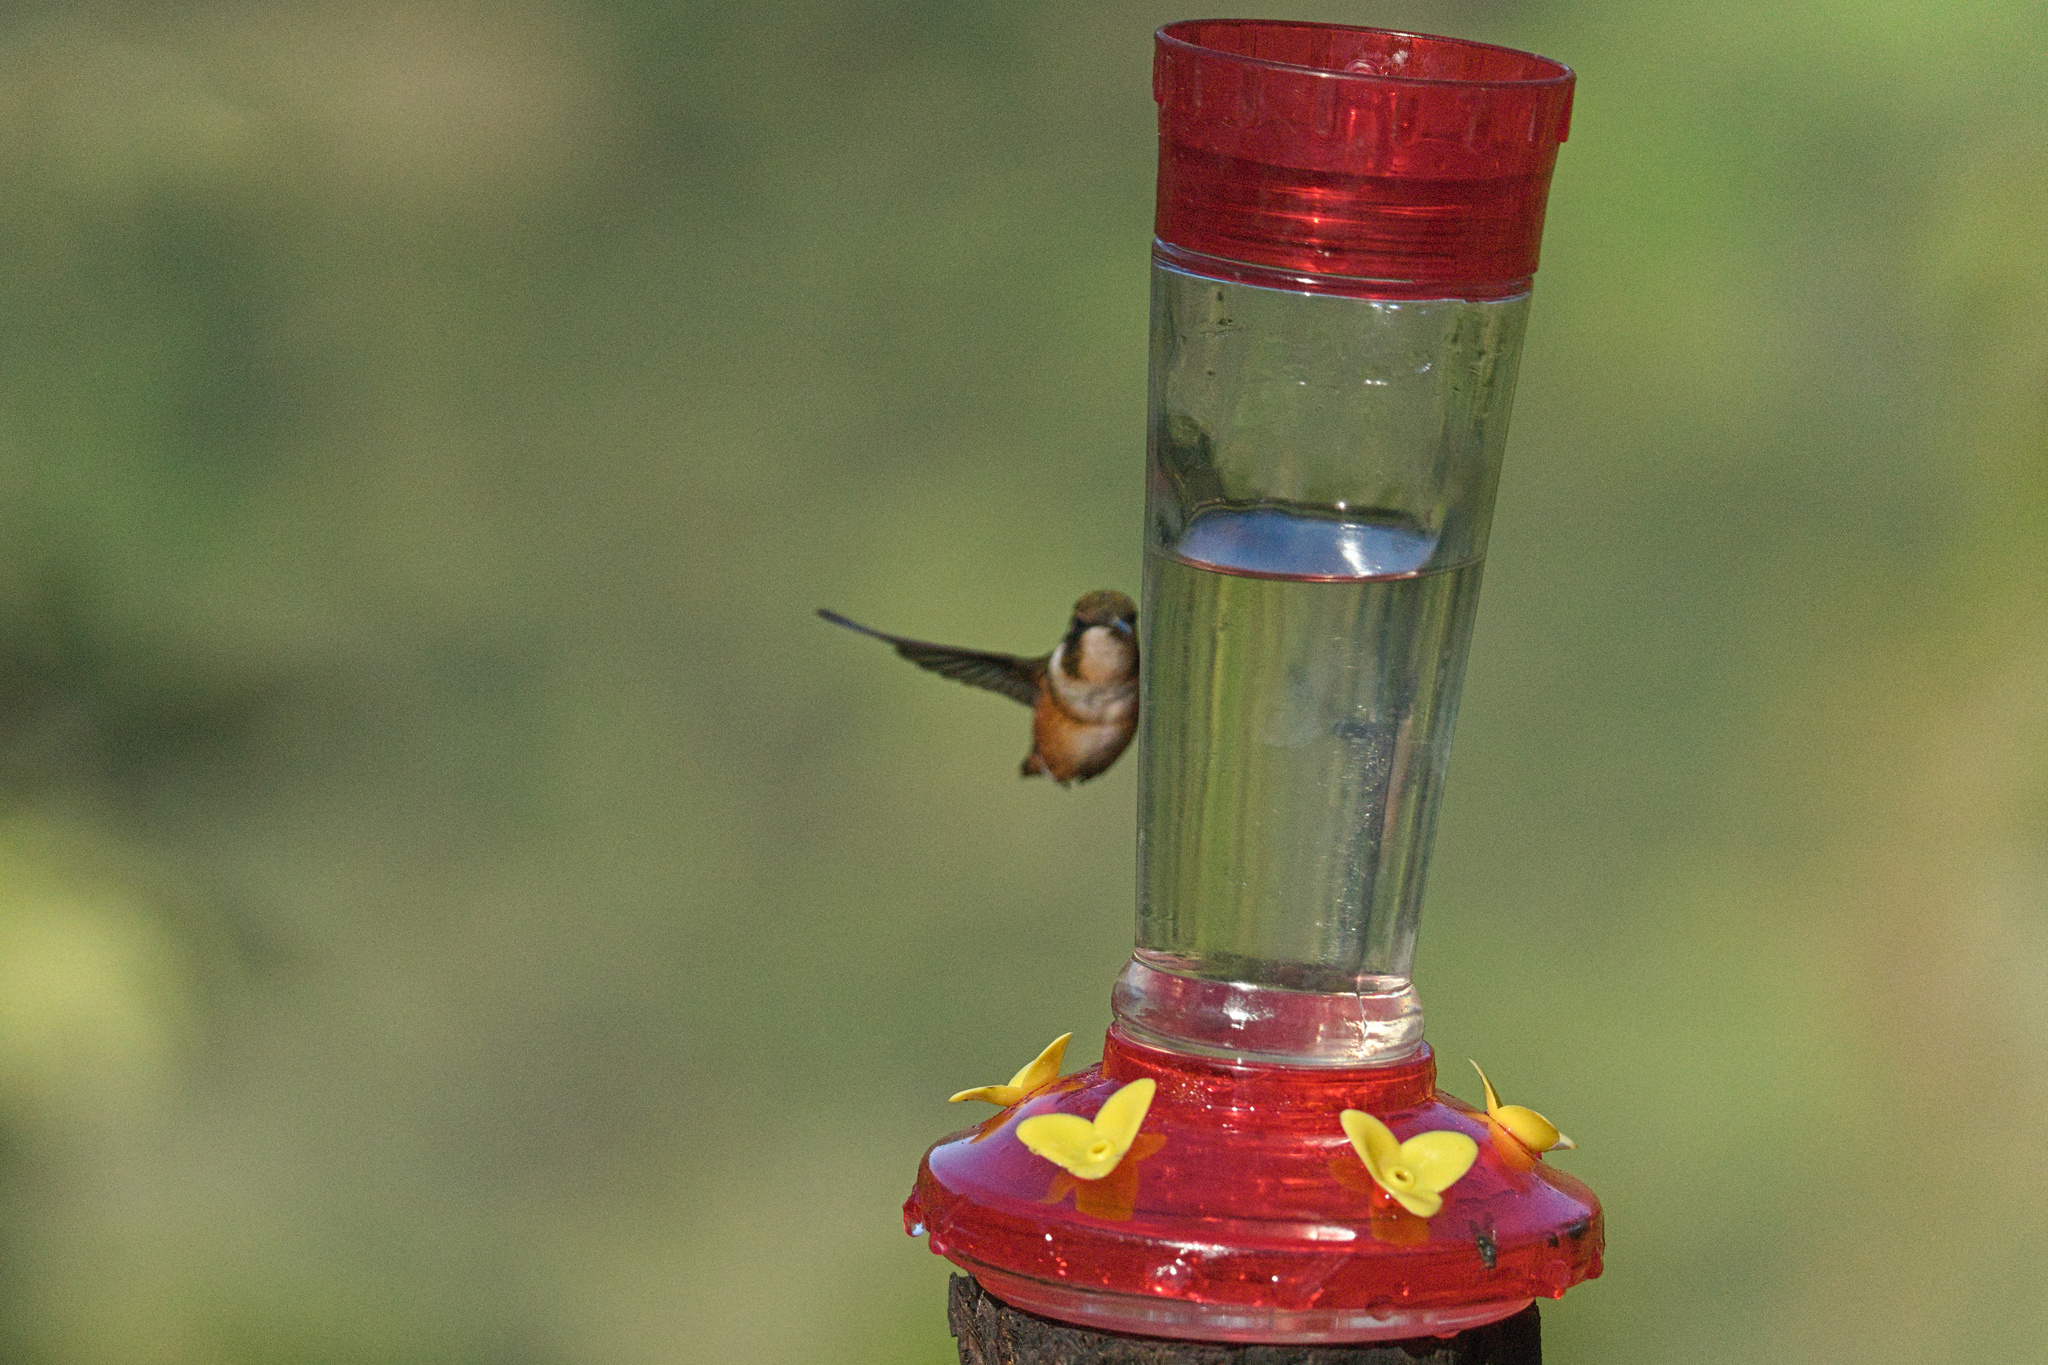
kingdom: Animalia
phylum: Chordata
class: Aves
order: Apodiformes
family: Trochilidae
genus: Chaetocercus
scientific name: Chaetocercus mulsant
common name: White-bellied woodstar
